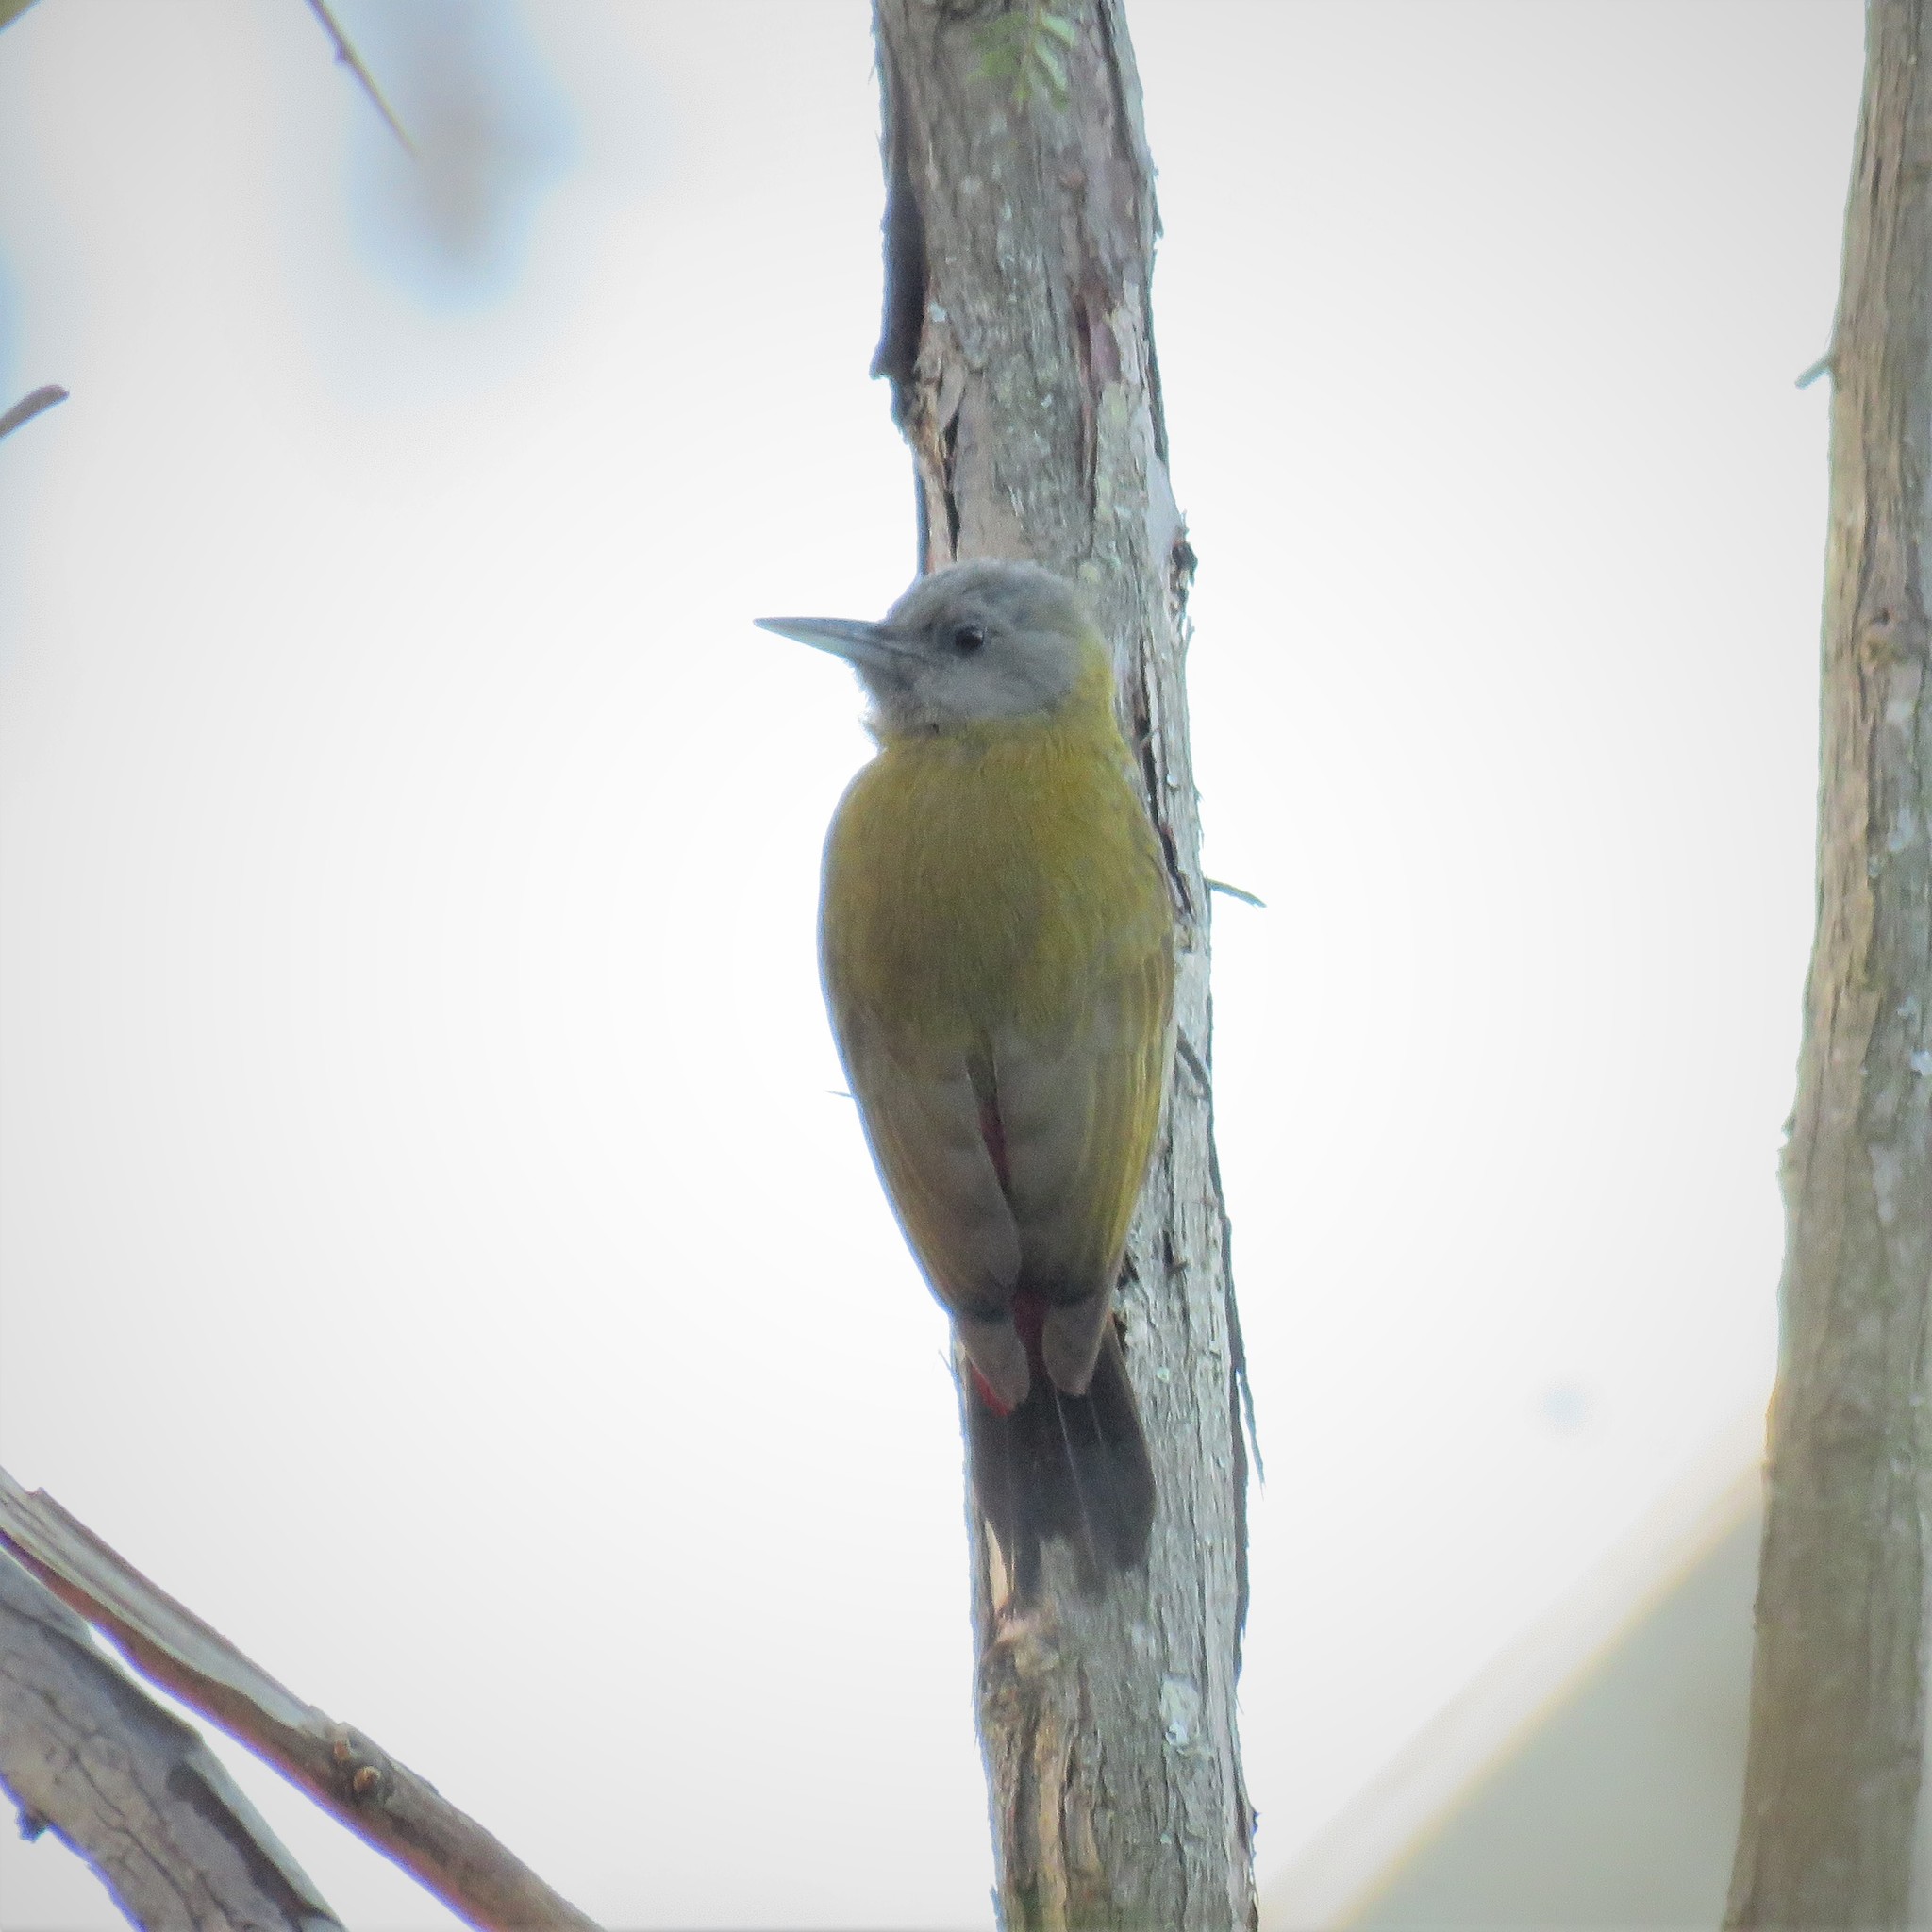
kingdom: Animalia
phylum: Chordata
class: Aves
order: Piciformes
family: Picidae
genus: Dendropicos
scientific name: Dendropicos griseocephalus
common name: Olive woodpecker
